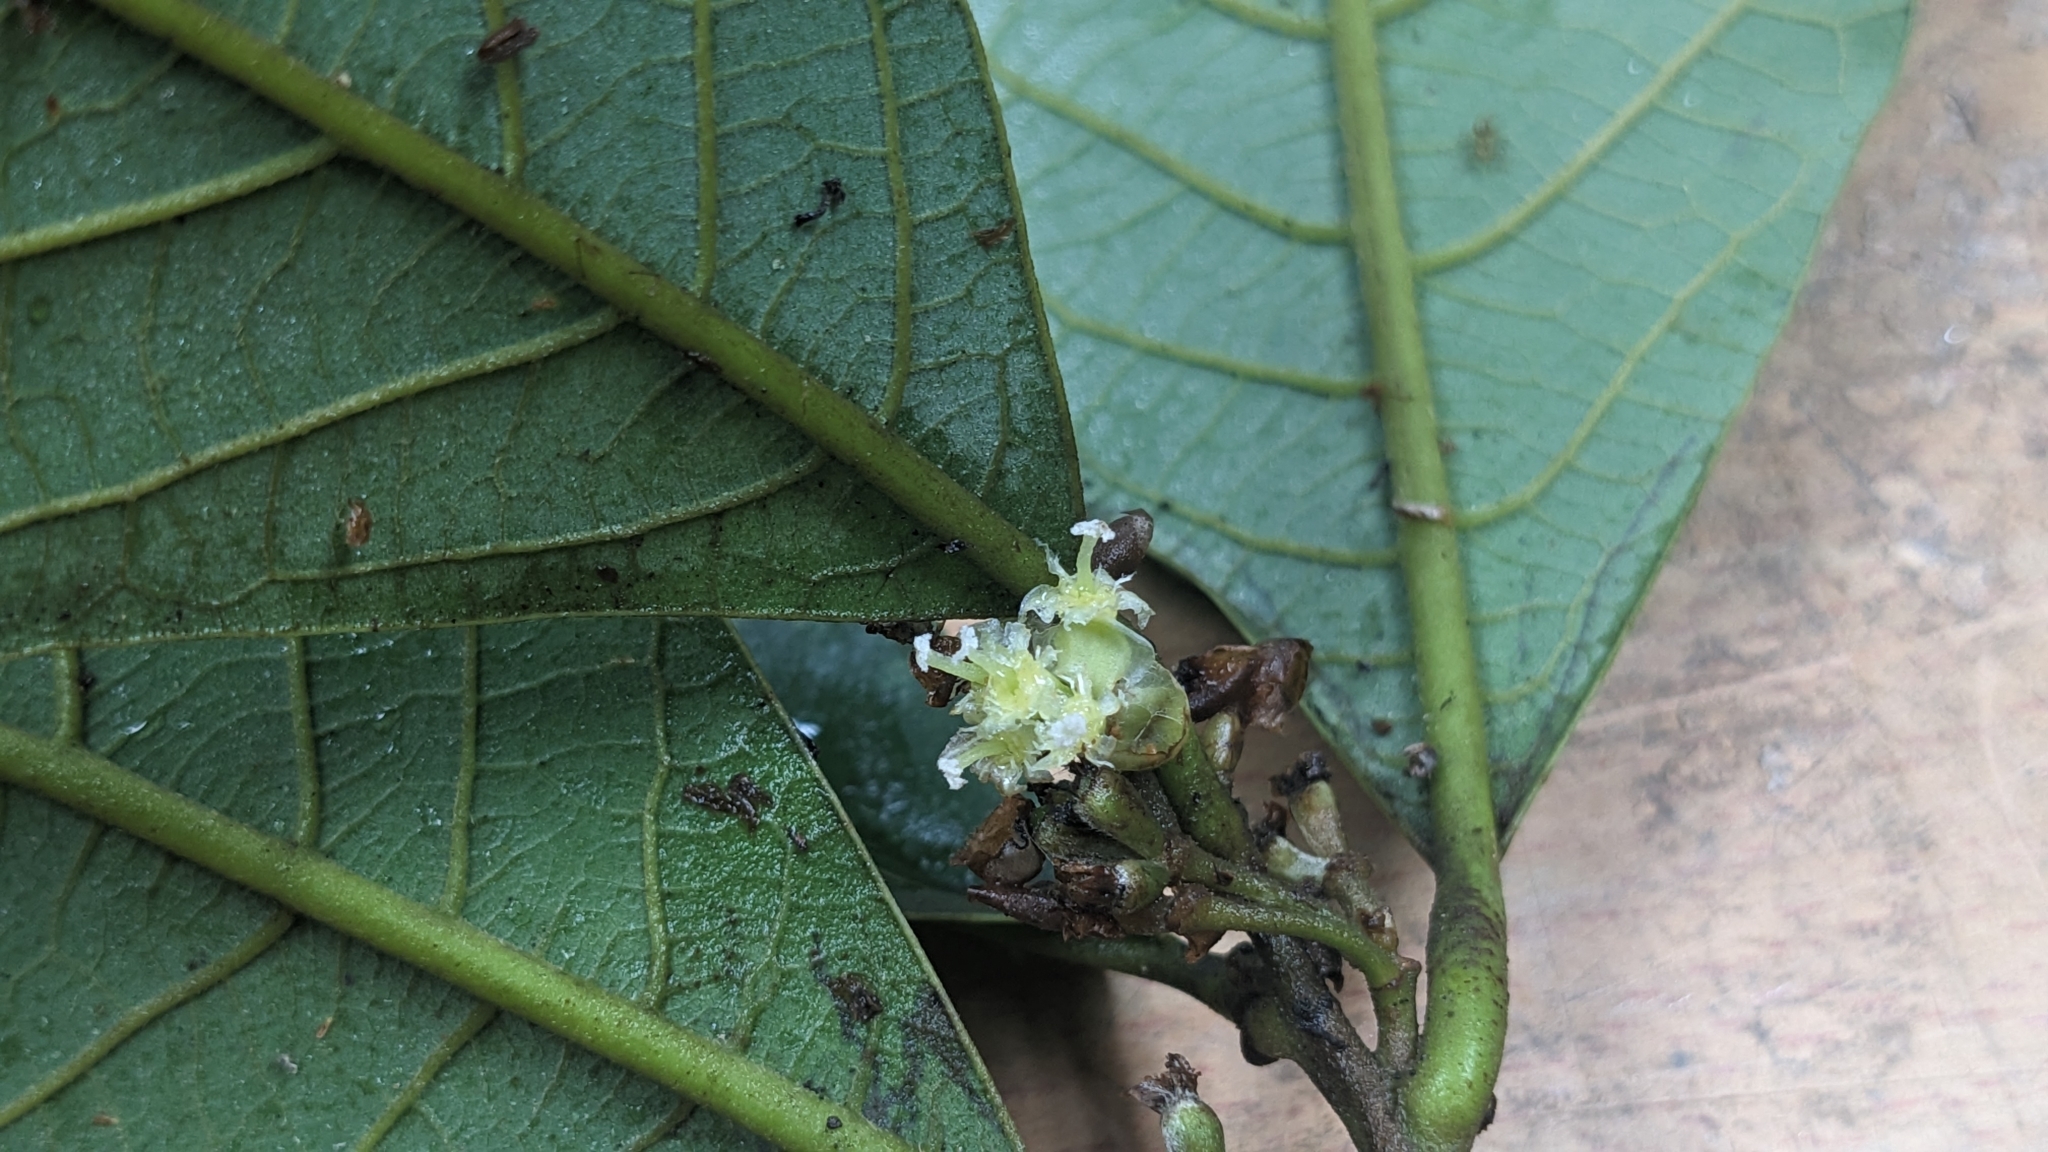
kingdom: Plantae
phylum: Tracheophyta
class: Magnoliopsida
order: Laurales
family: Lauraceae
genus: Litsea
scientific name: Litsea akoensis
